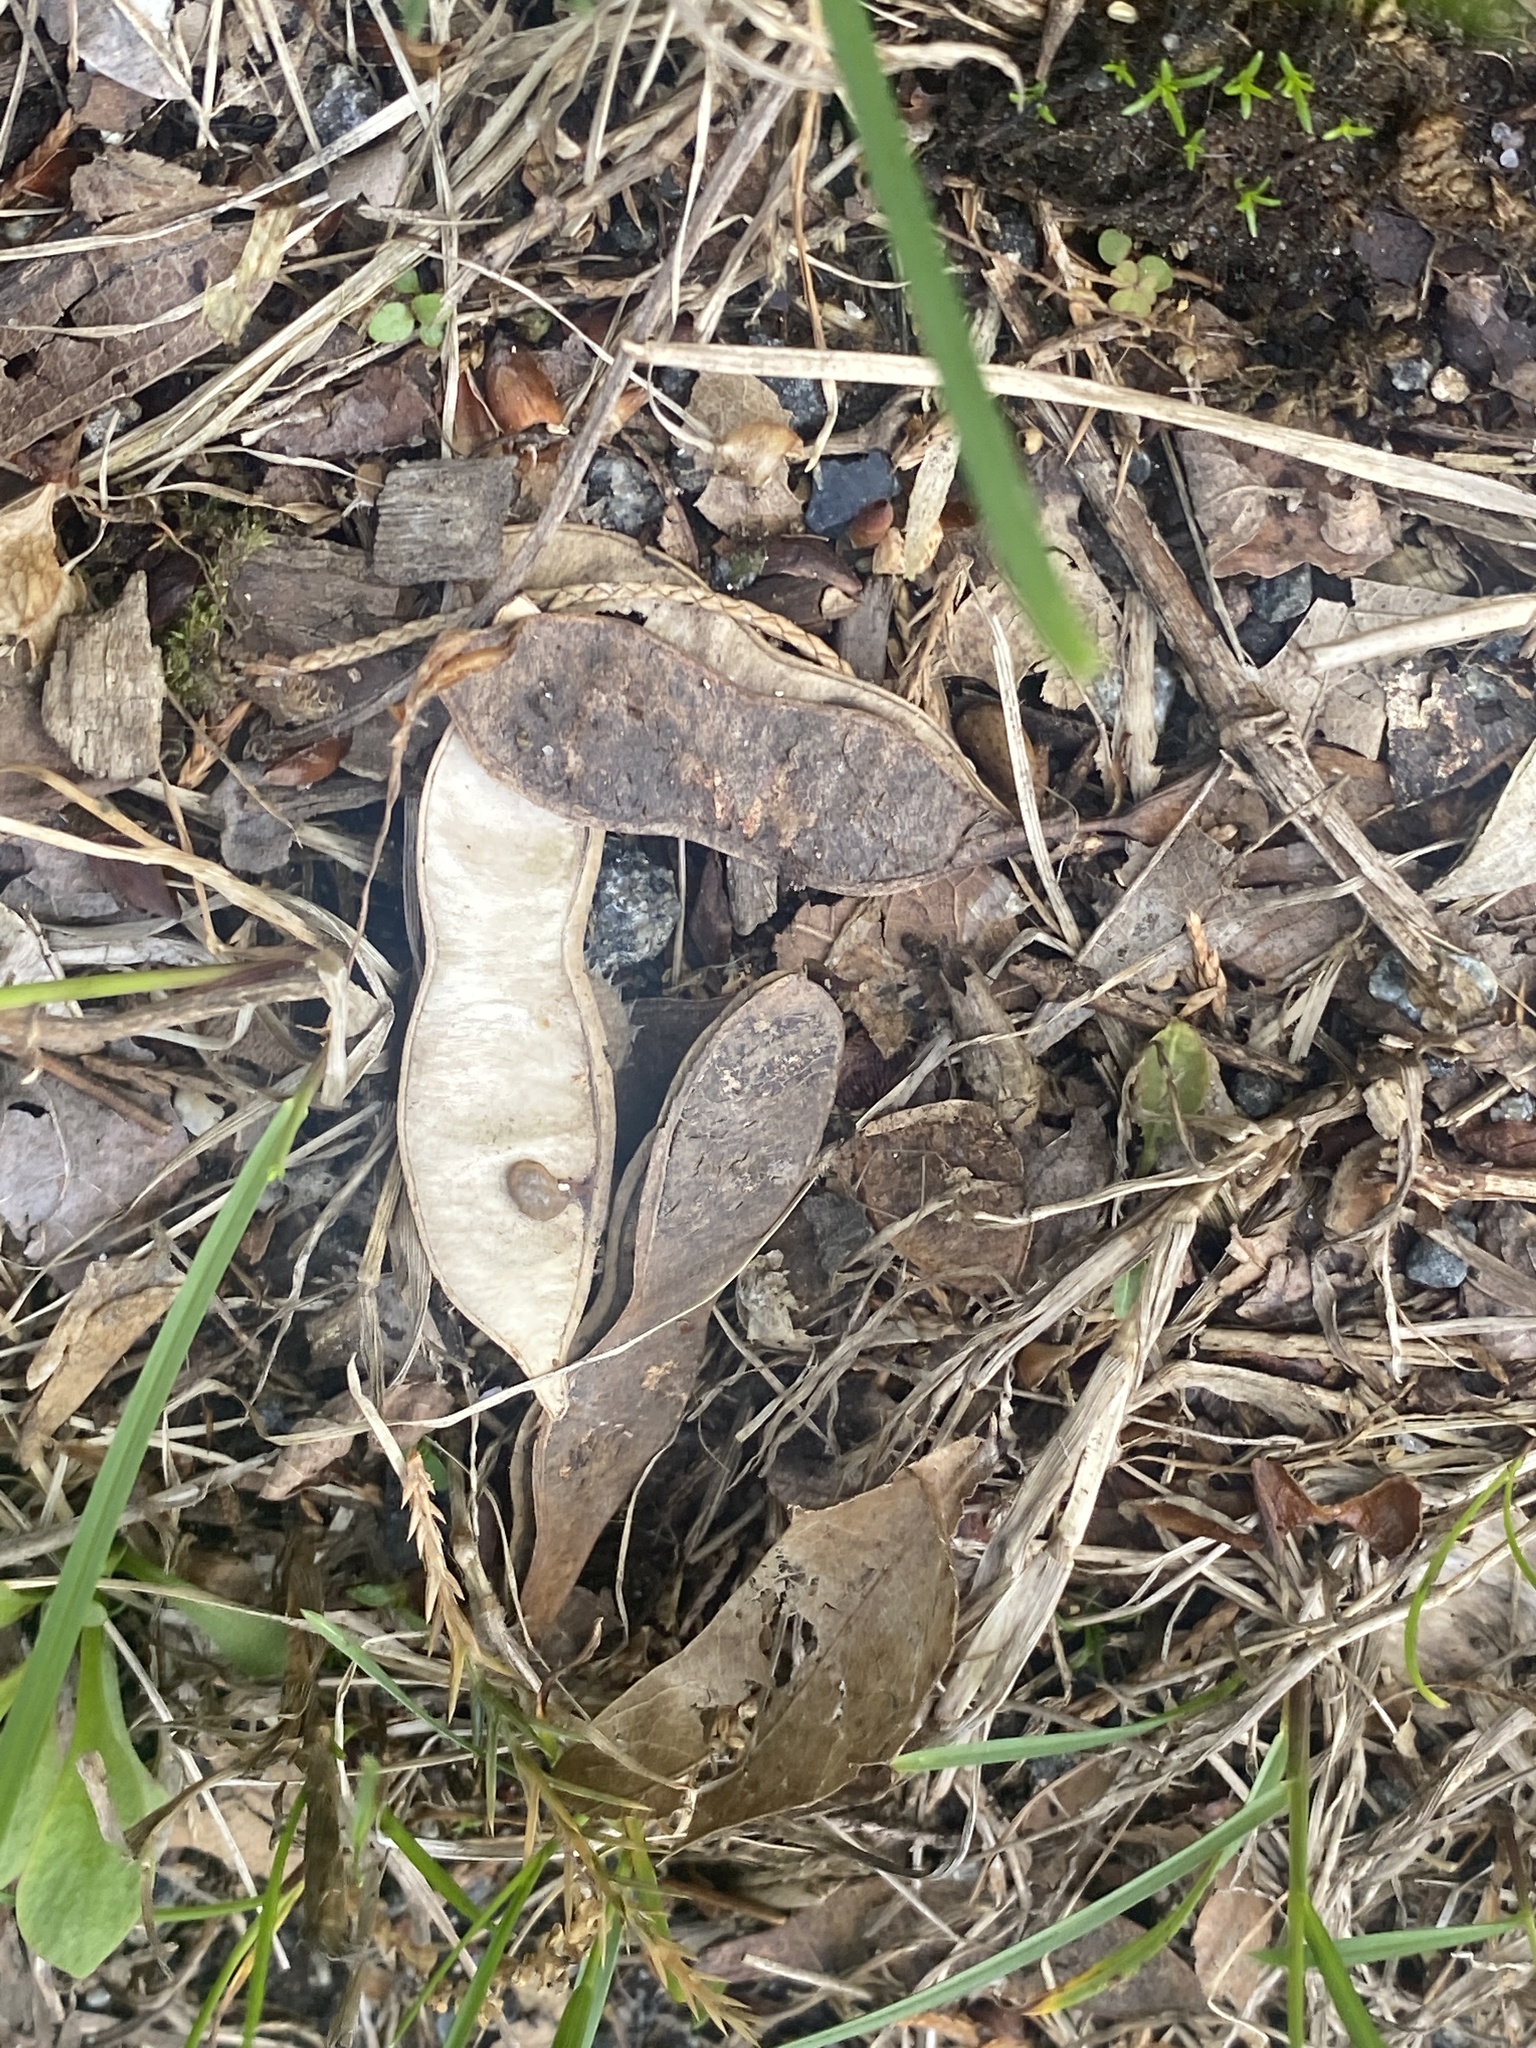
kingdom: Plantae
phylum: Tracheophyta
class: Magnoliopsida
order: Fabales
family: Fabaceae
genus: Robinia
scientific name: Robinia pseudoacacia
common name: Black locust
